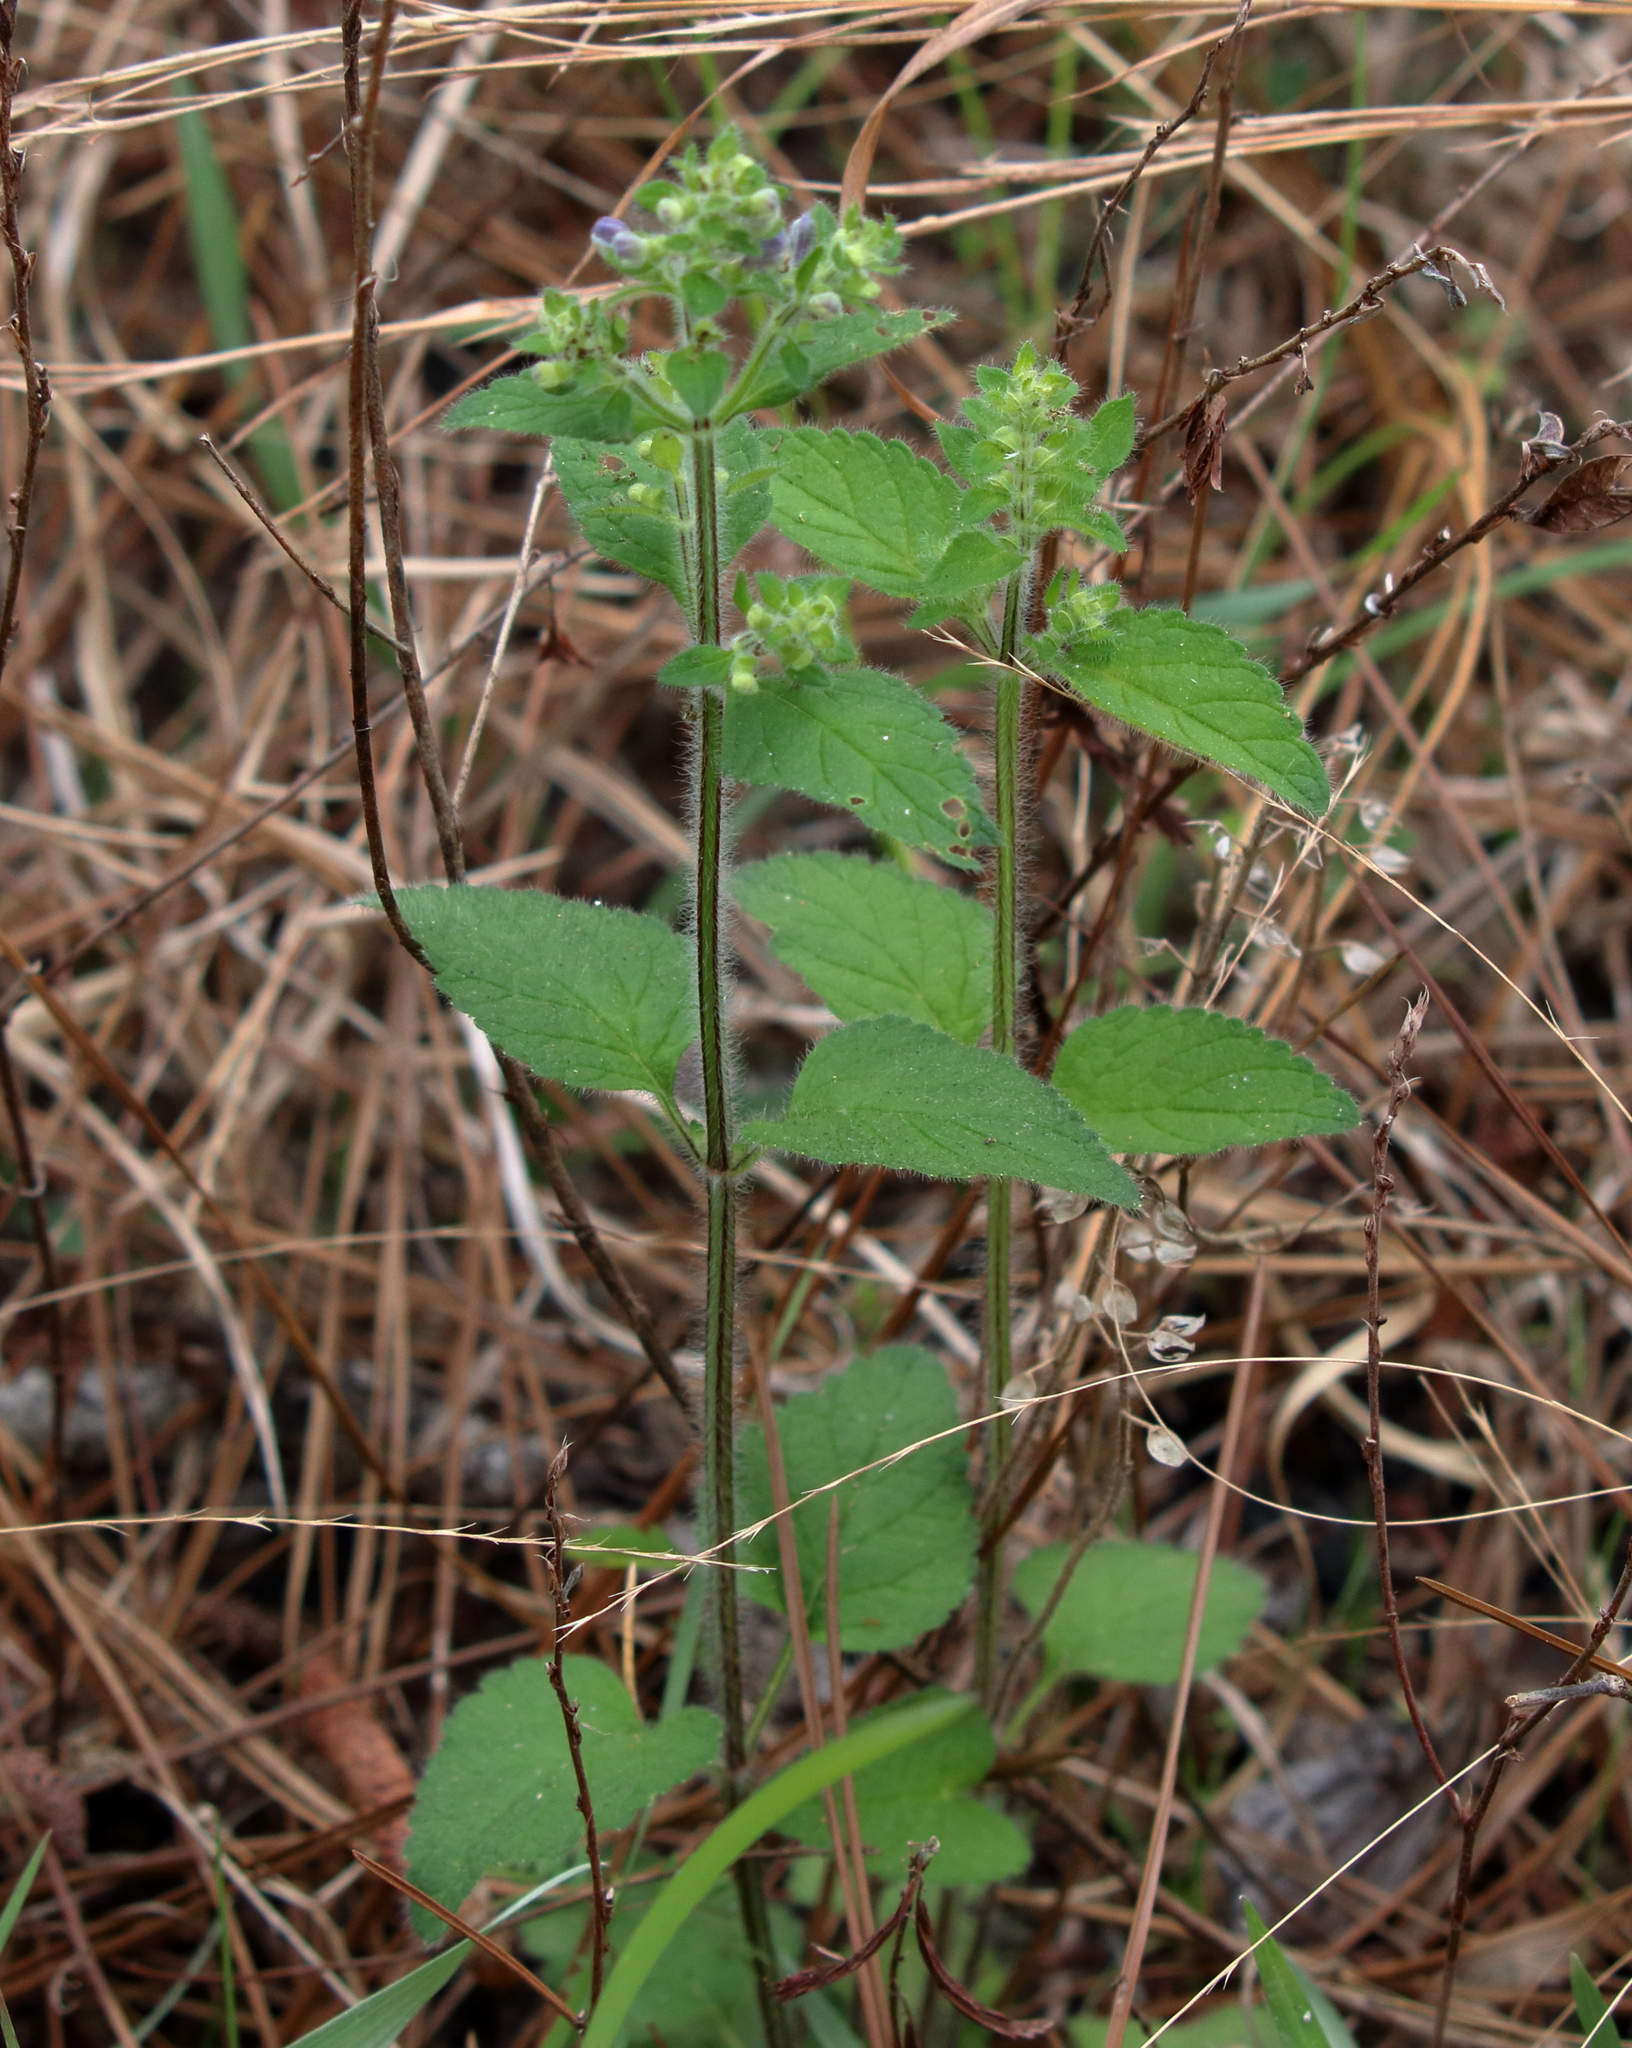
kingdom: Plantae
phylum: Tracheophyta
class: Magnoliopsida
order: Lamiales
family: Lamiaceae
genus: Scutellaria
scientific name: Scutellaria elliptica
